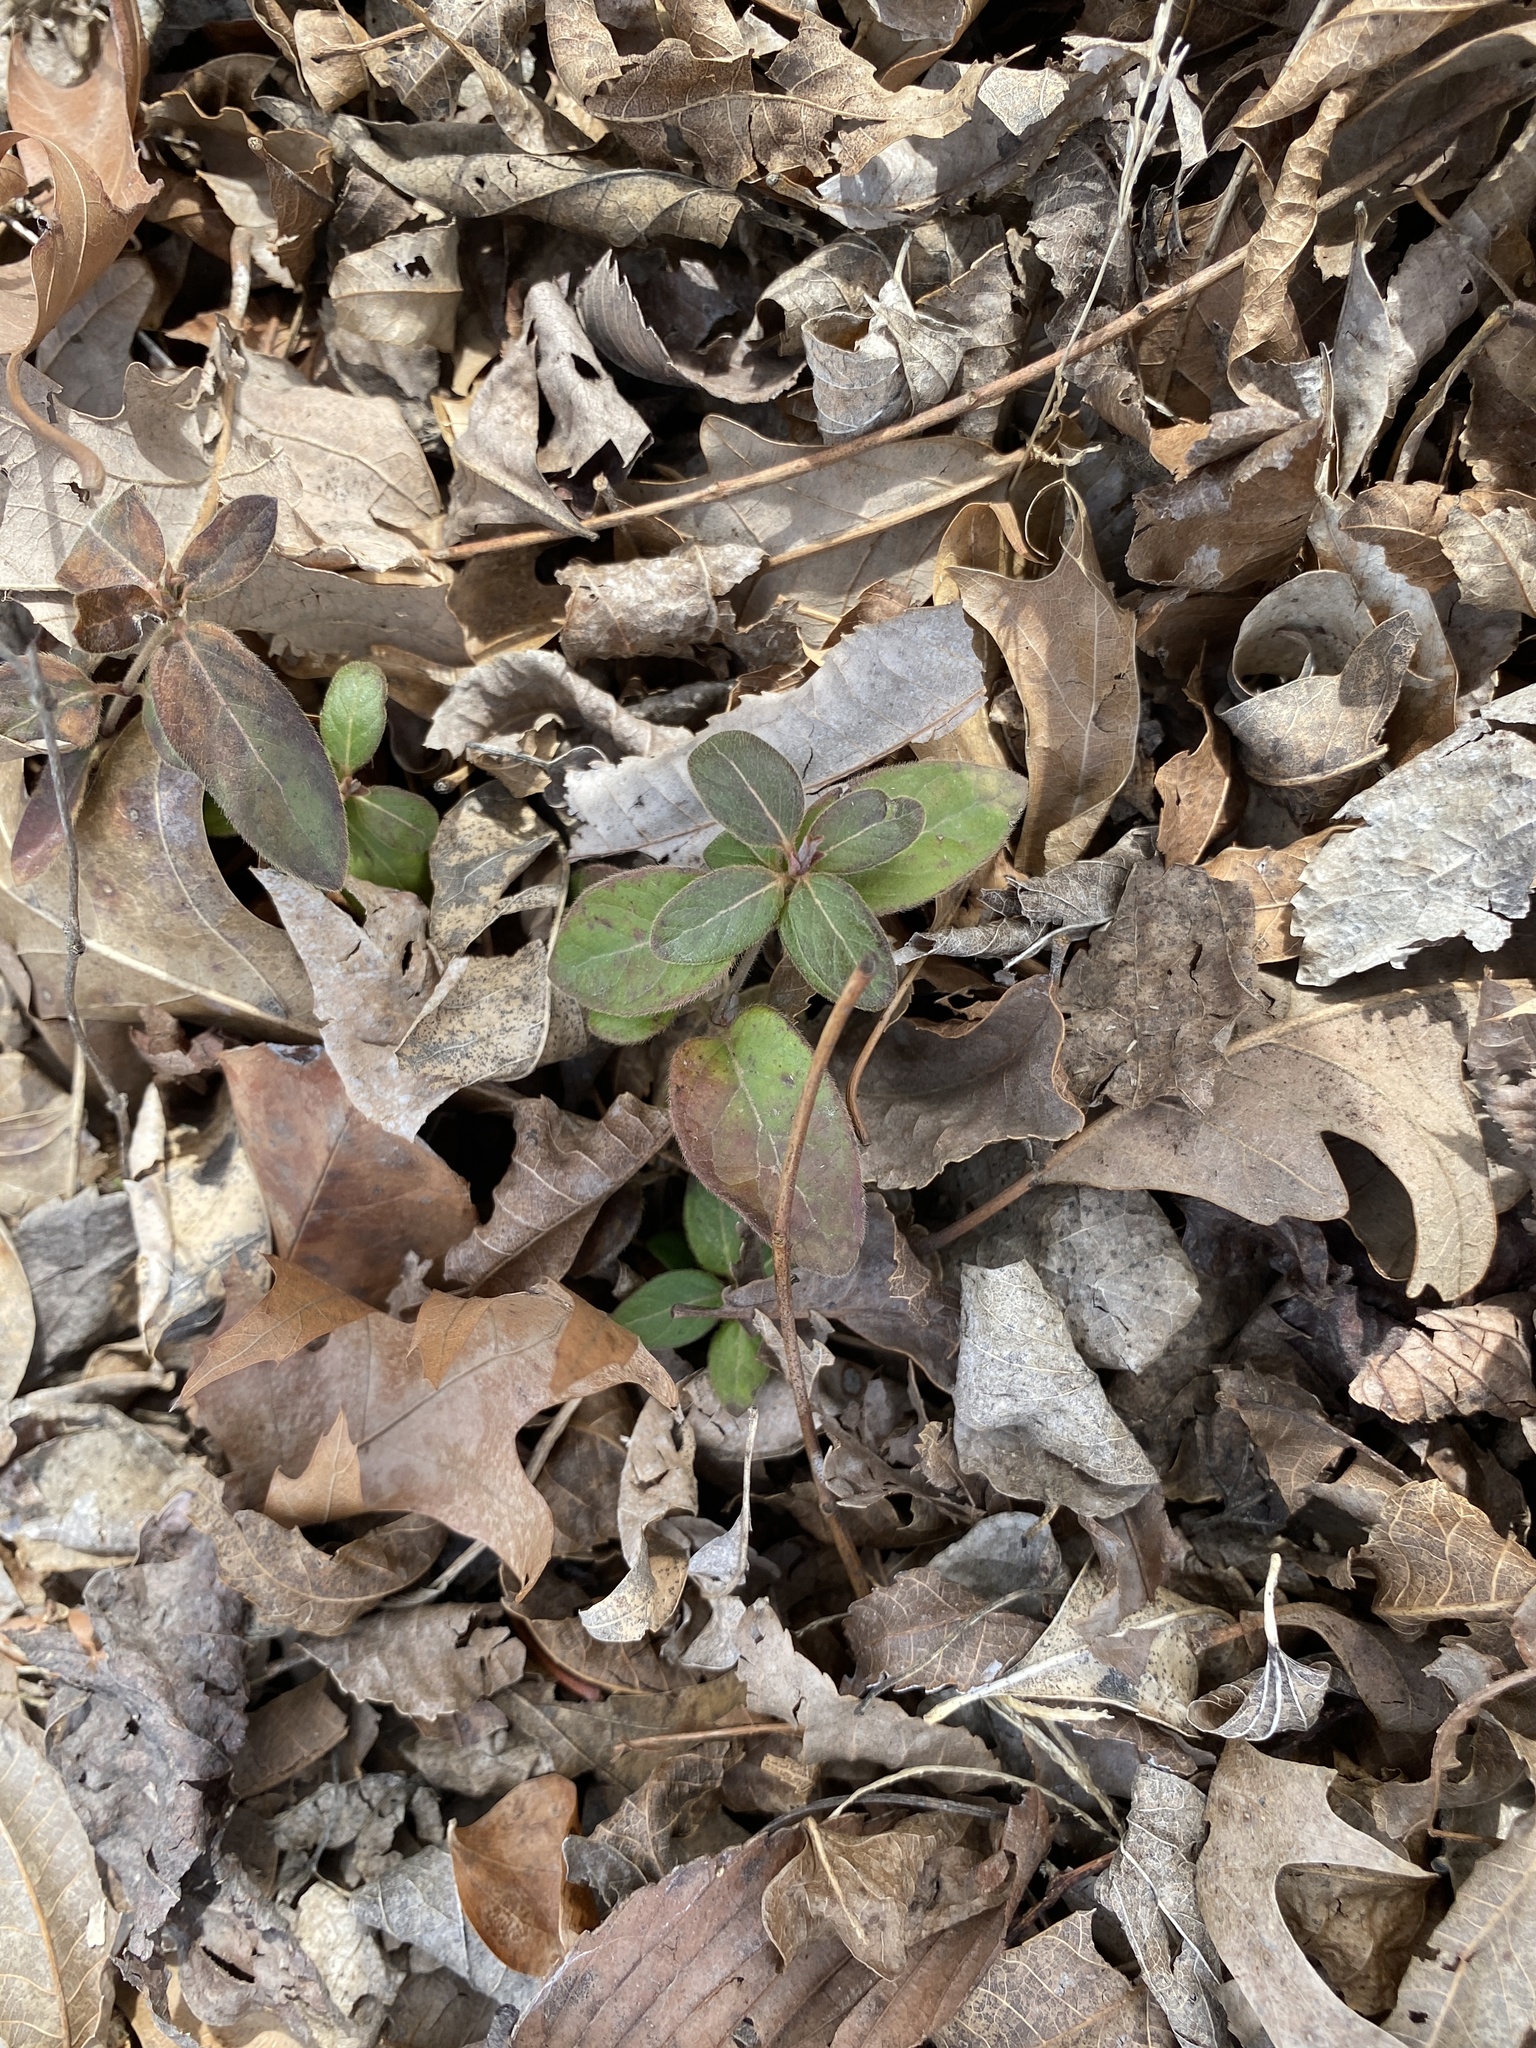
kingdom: Plantae
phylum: Tracheophyta
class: Magnoliopsida
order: Dipsacales
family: Caprifoliaceae
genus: Lonicera
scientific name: Lonicera japonica
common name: Japanese honeysuckle
